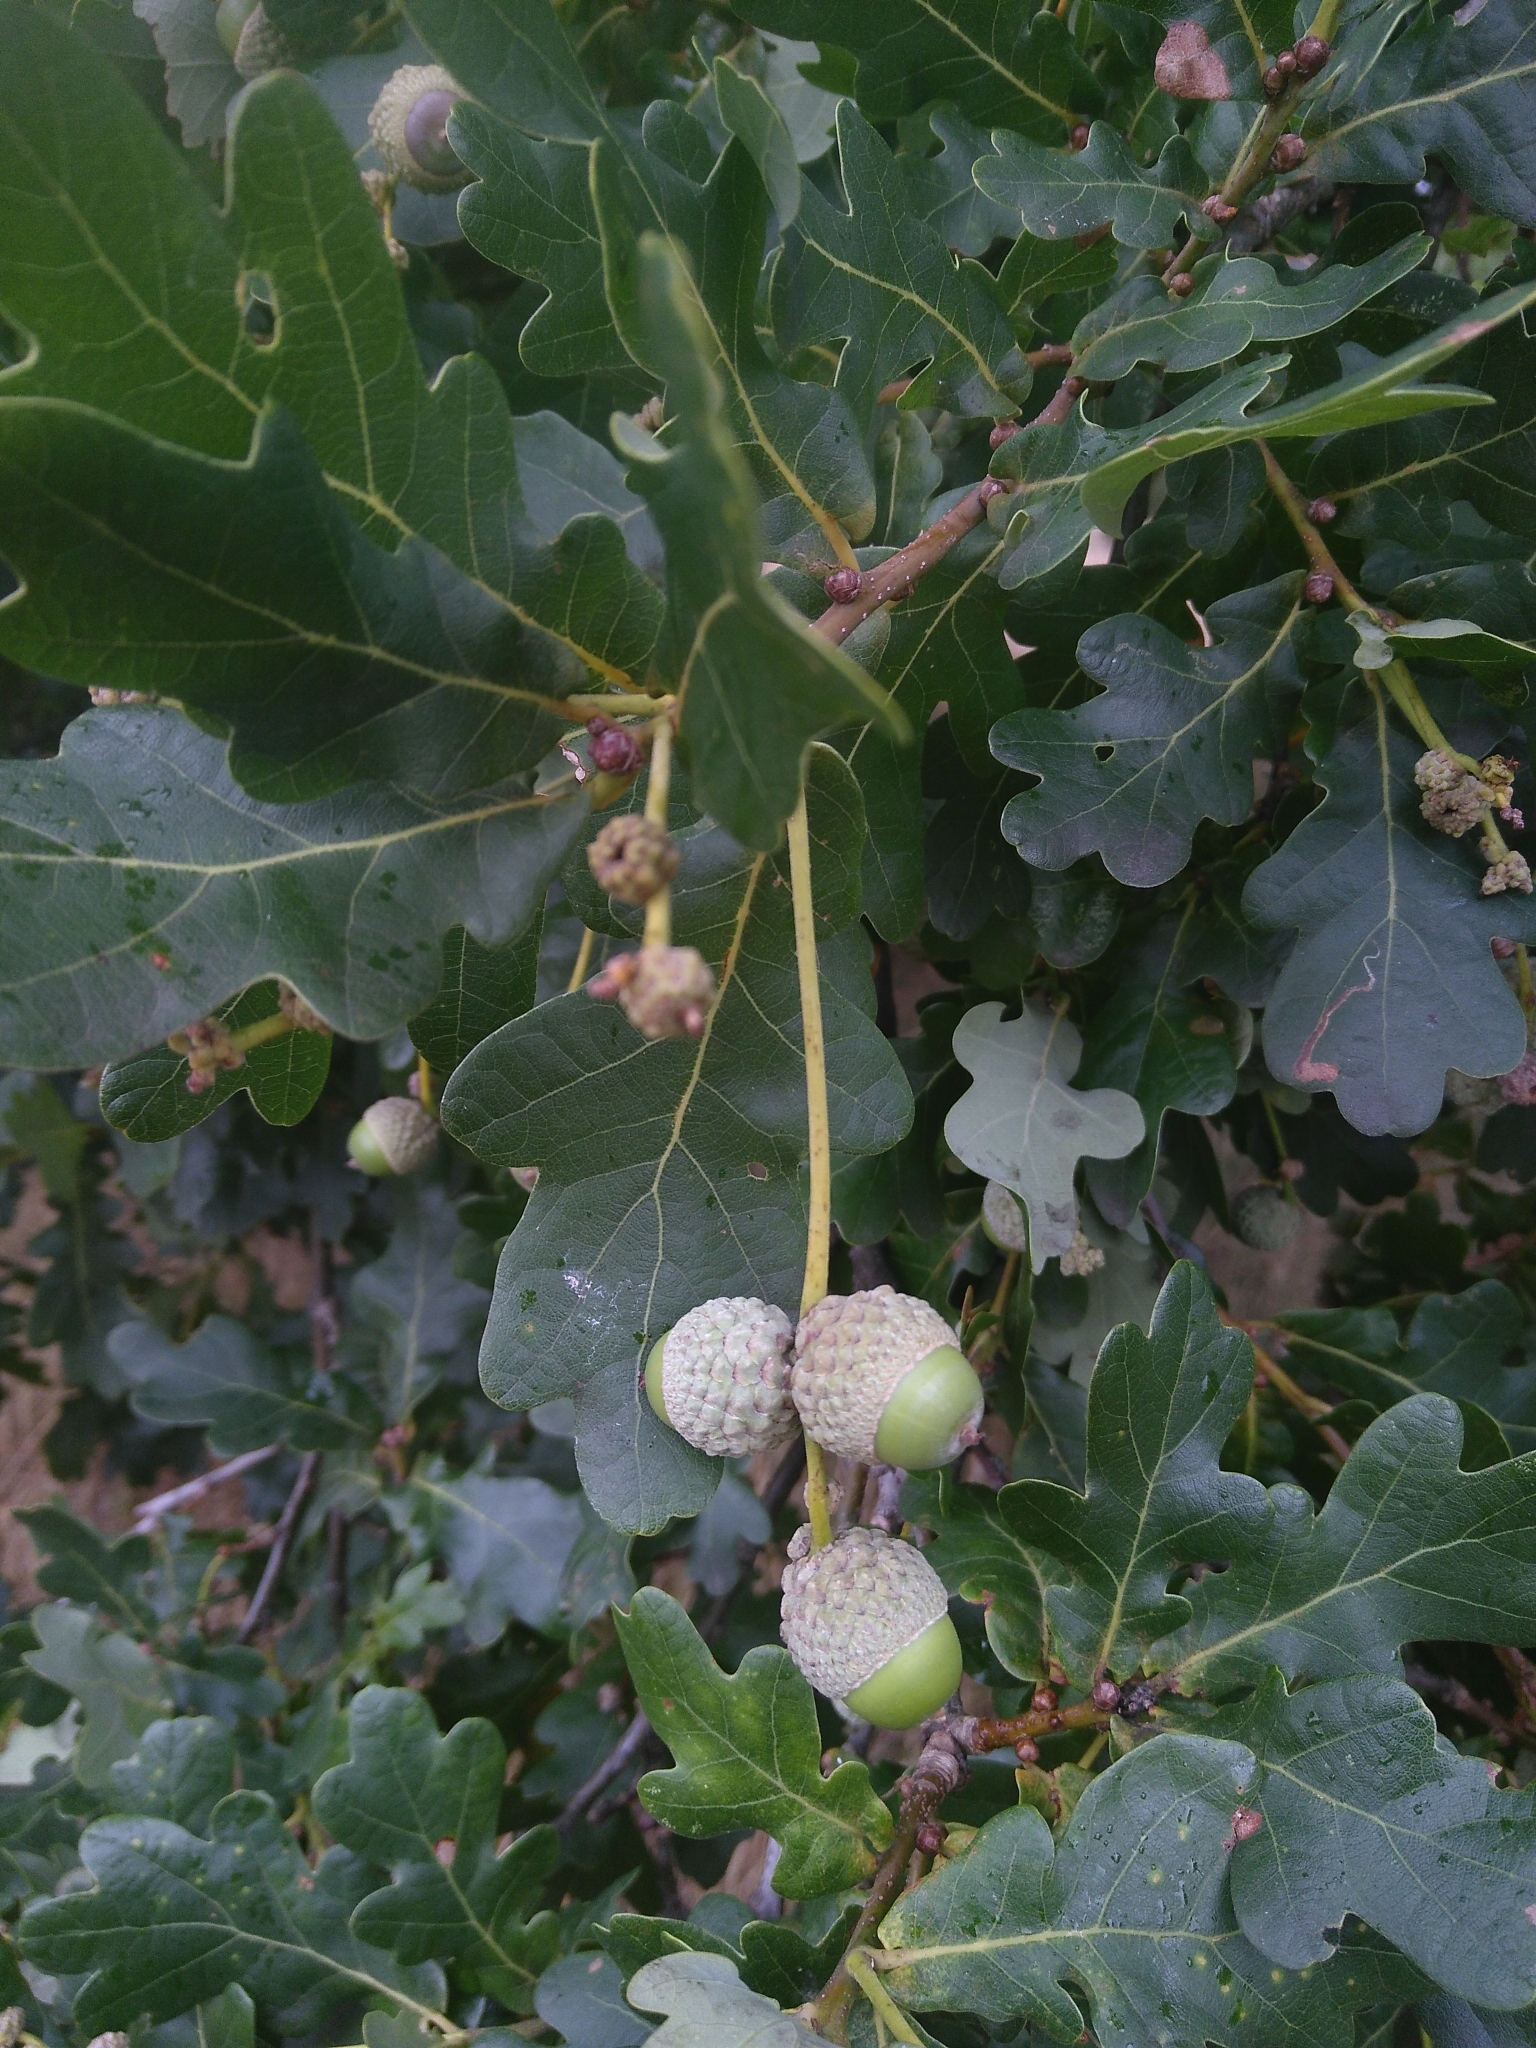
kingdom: Plantae
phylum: Tracheophyta
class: Magnoliopsida
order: Fagales
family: Fagaceae
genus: Quercus
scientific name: Quercus robur
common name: Pedunculate oak
